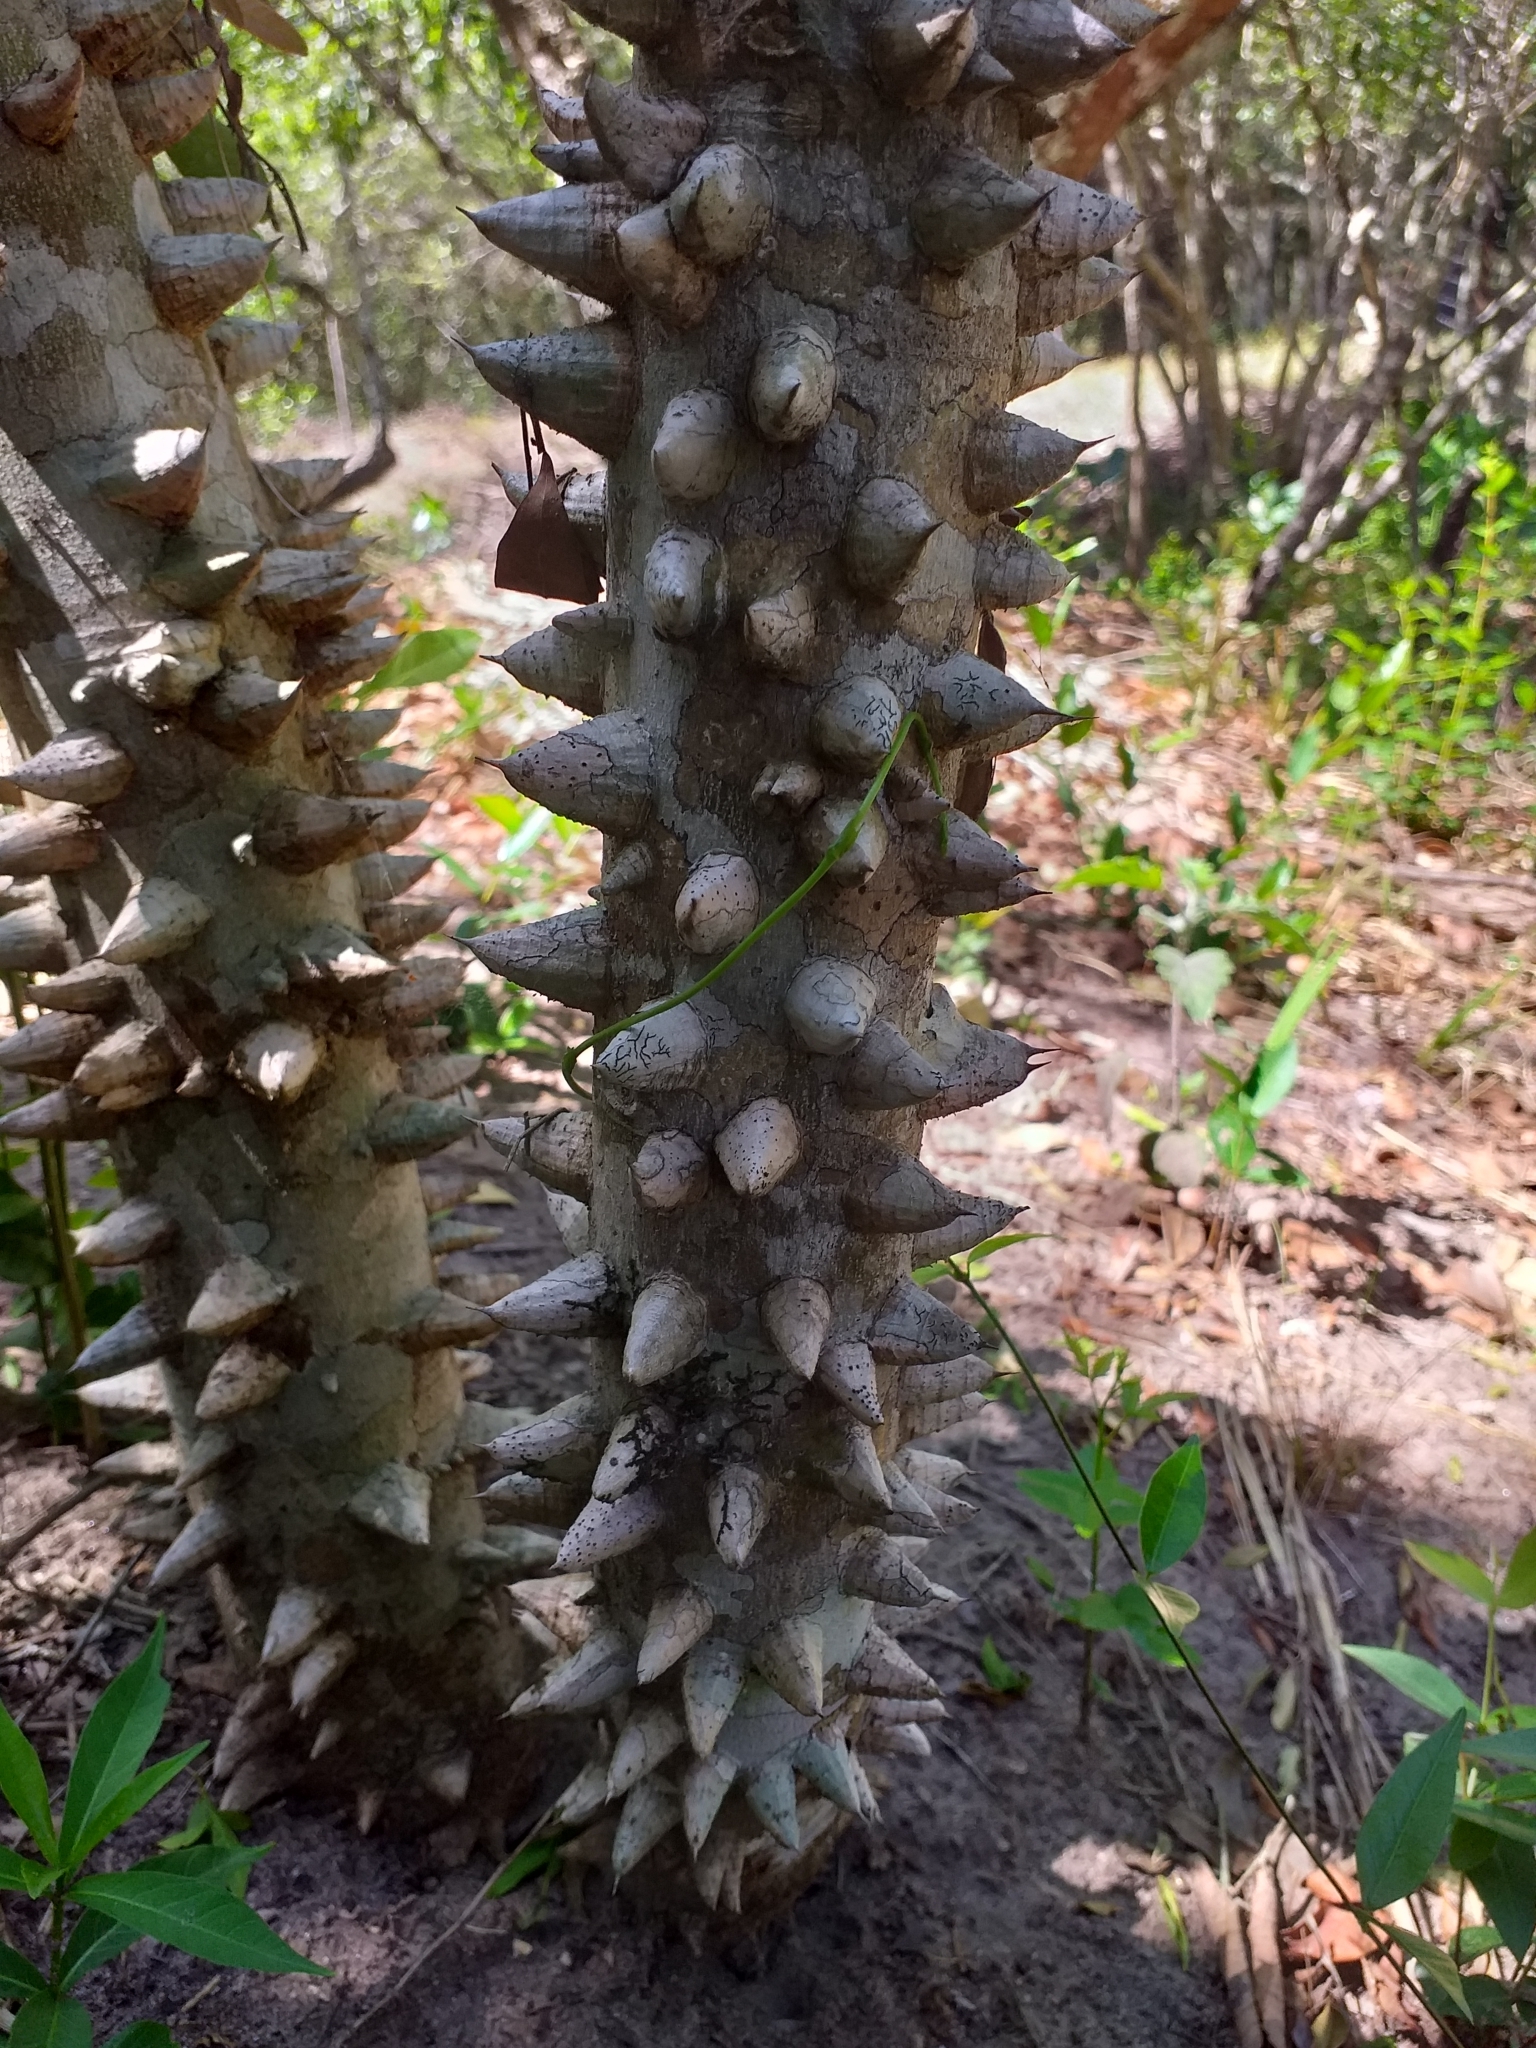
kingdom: Plantae
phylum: Tracheophyta
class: Magnoliopsida
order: Sapindales
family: Rutaceae
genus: Zanthoxylum
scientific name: Zanthoxylum rhoifolium
